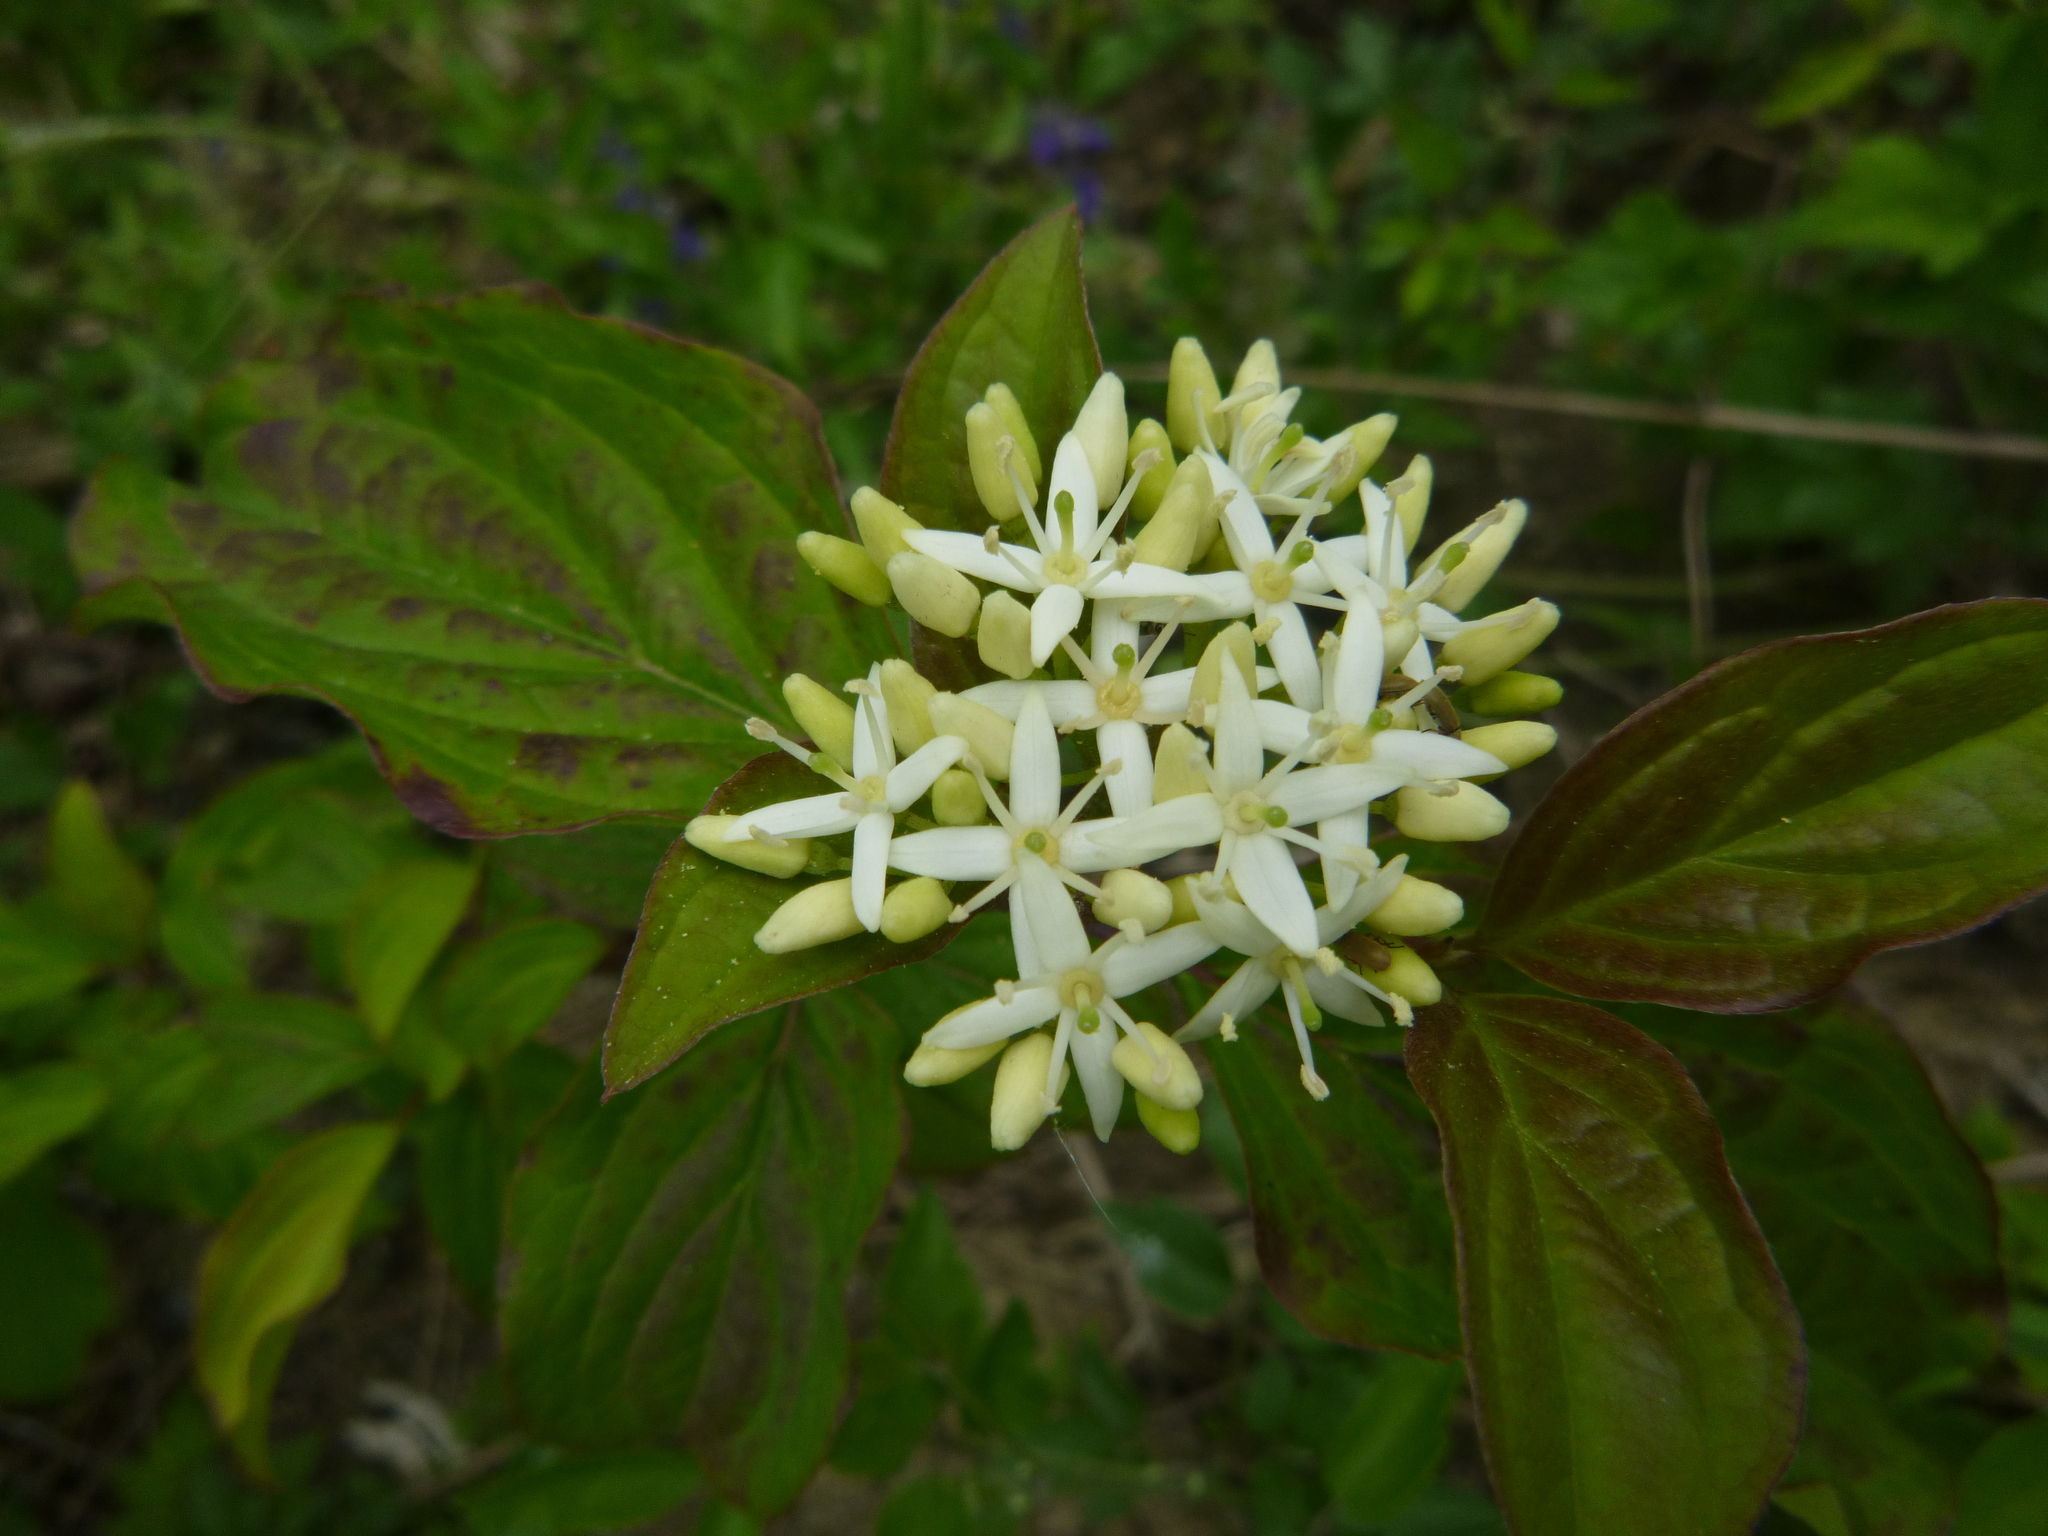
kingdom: Plantae
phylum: Tracheophyta
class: Magnoliopsida
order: Cornales
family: Cornaceae
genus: Cornus
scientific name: Cornus sanguinea
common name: Dogwood
